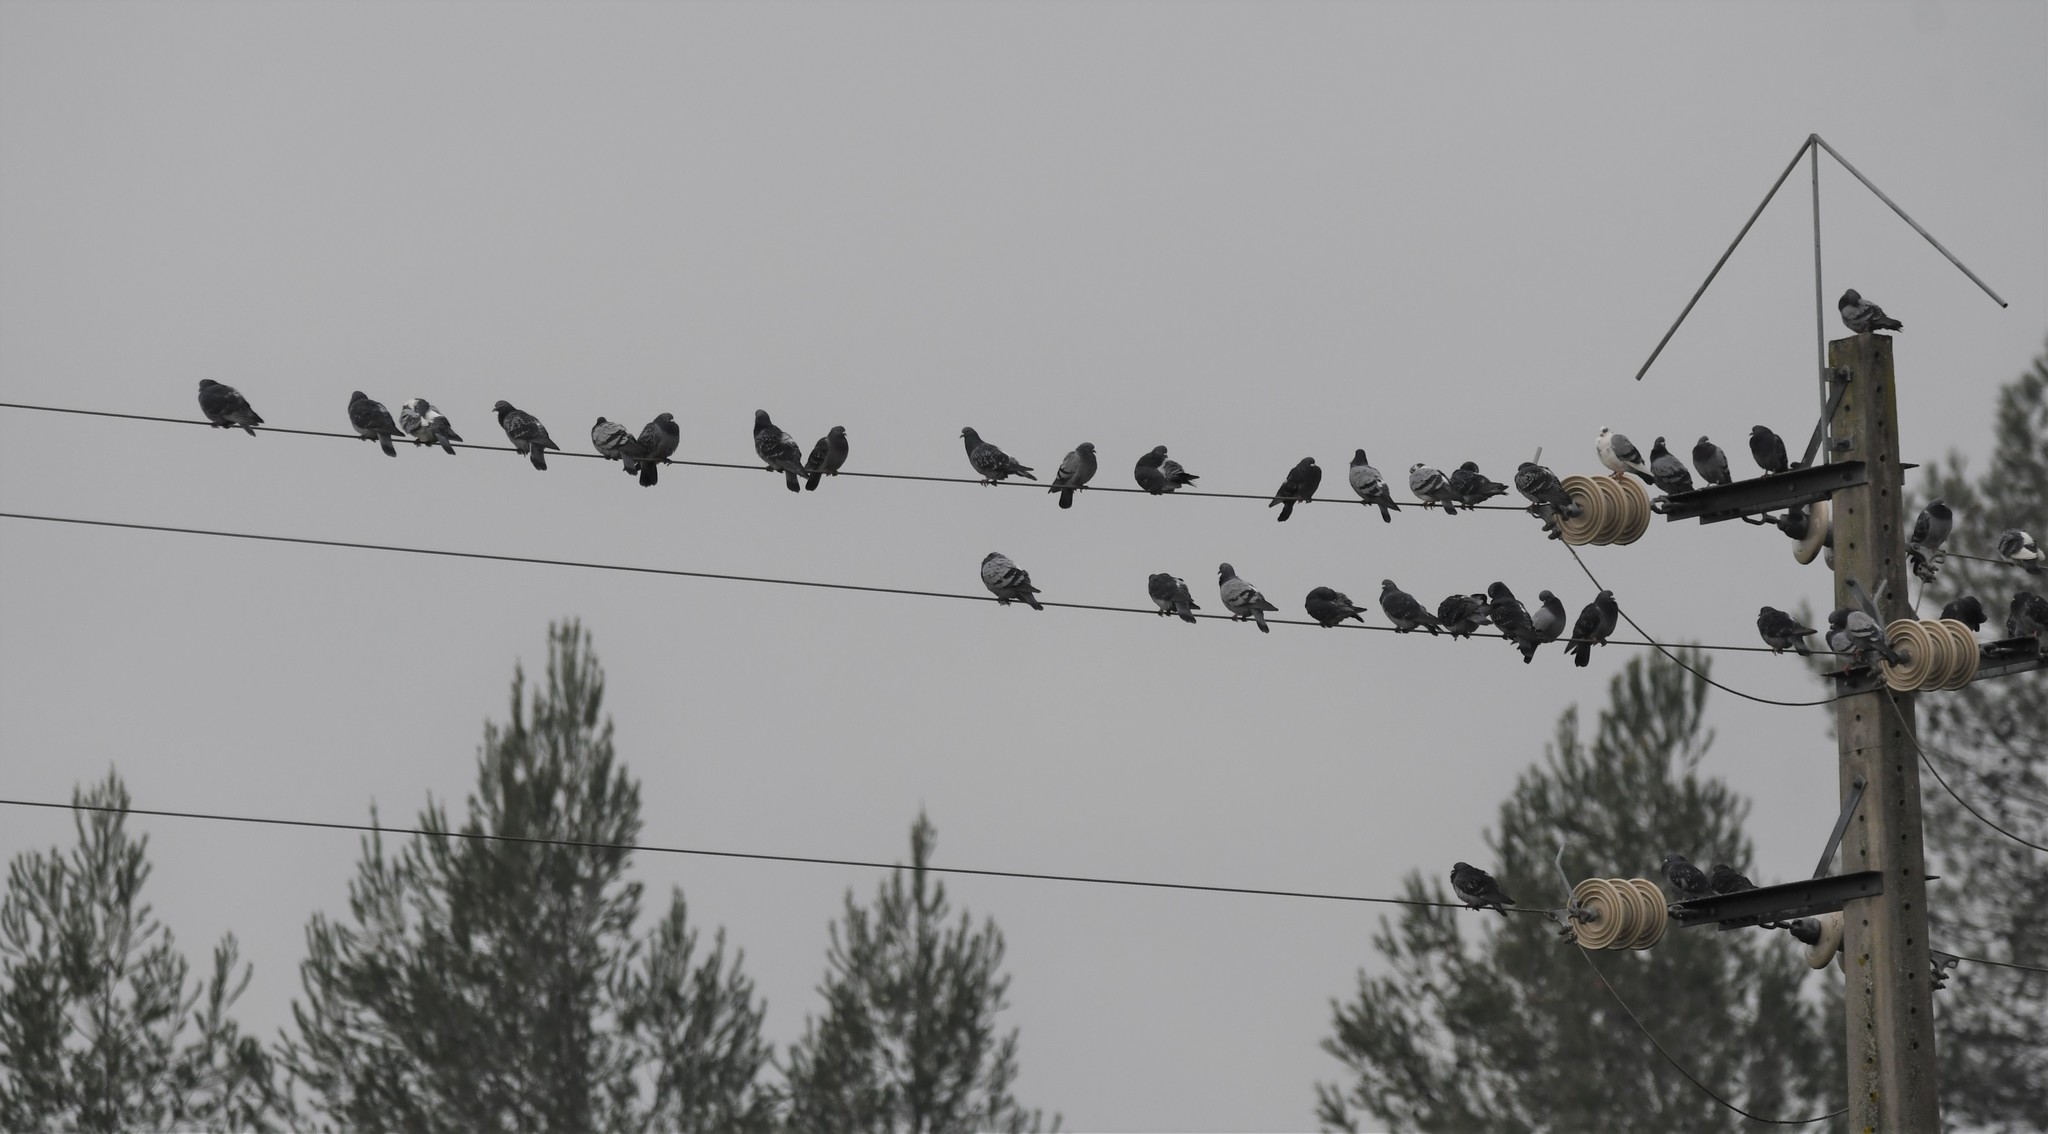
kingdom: Animalia
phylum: Chordata
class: Aves
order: Columbiformes
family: Columbidae
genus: Columba
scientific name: Columba livia
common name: Rock pigeon
